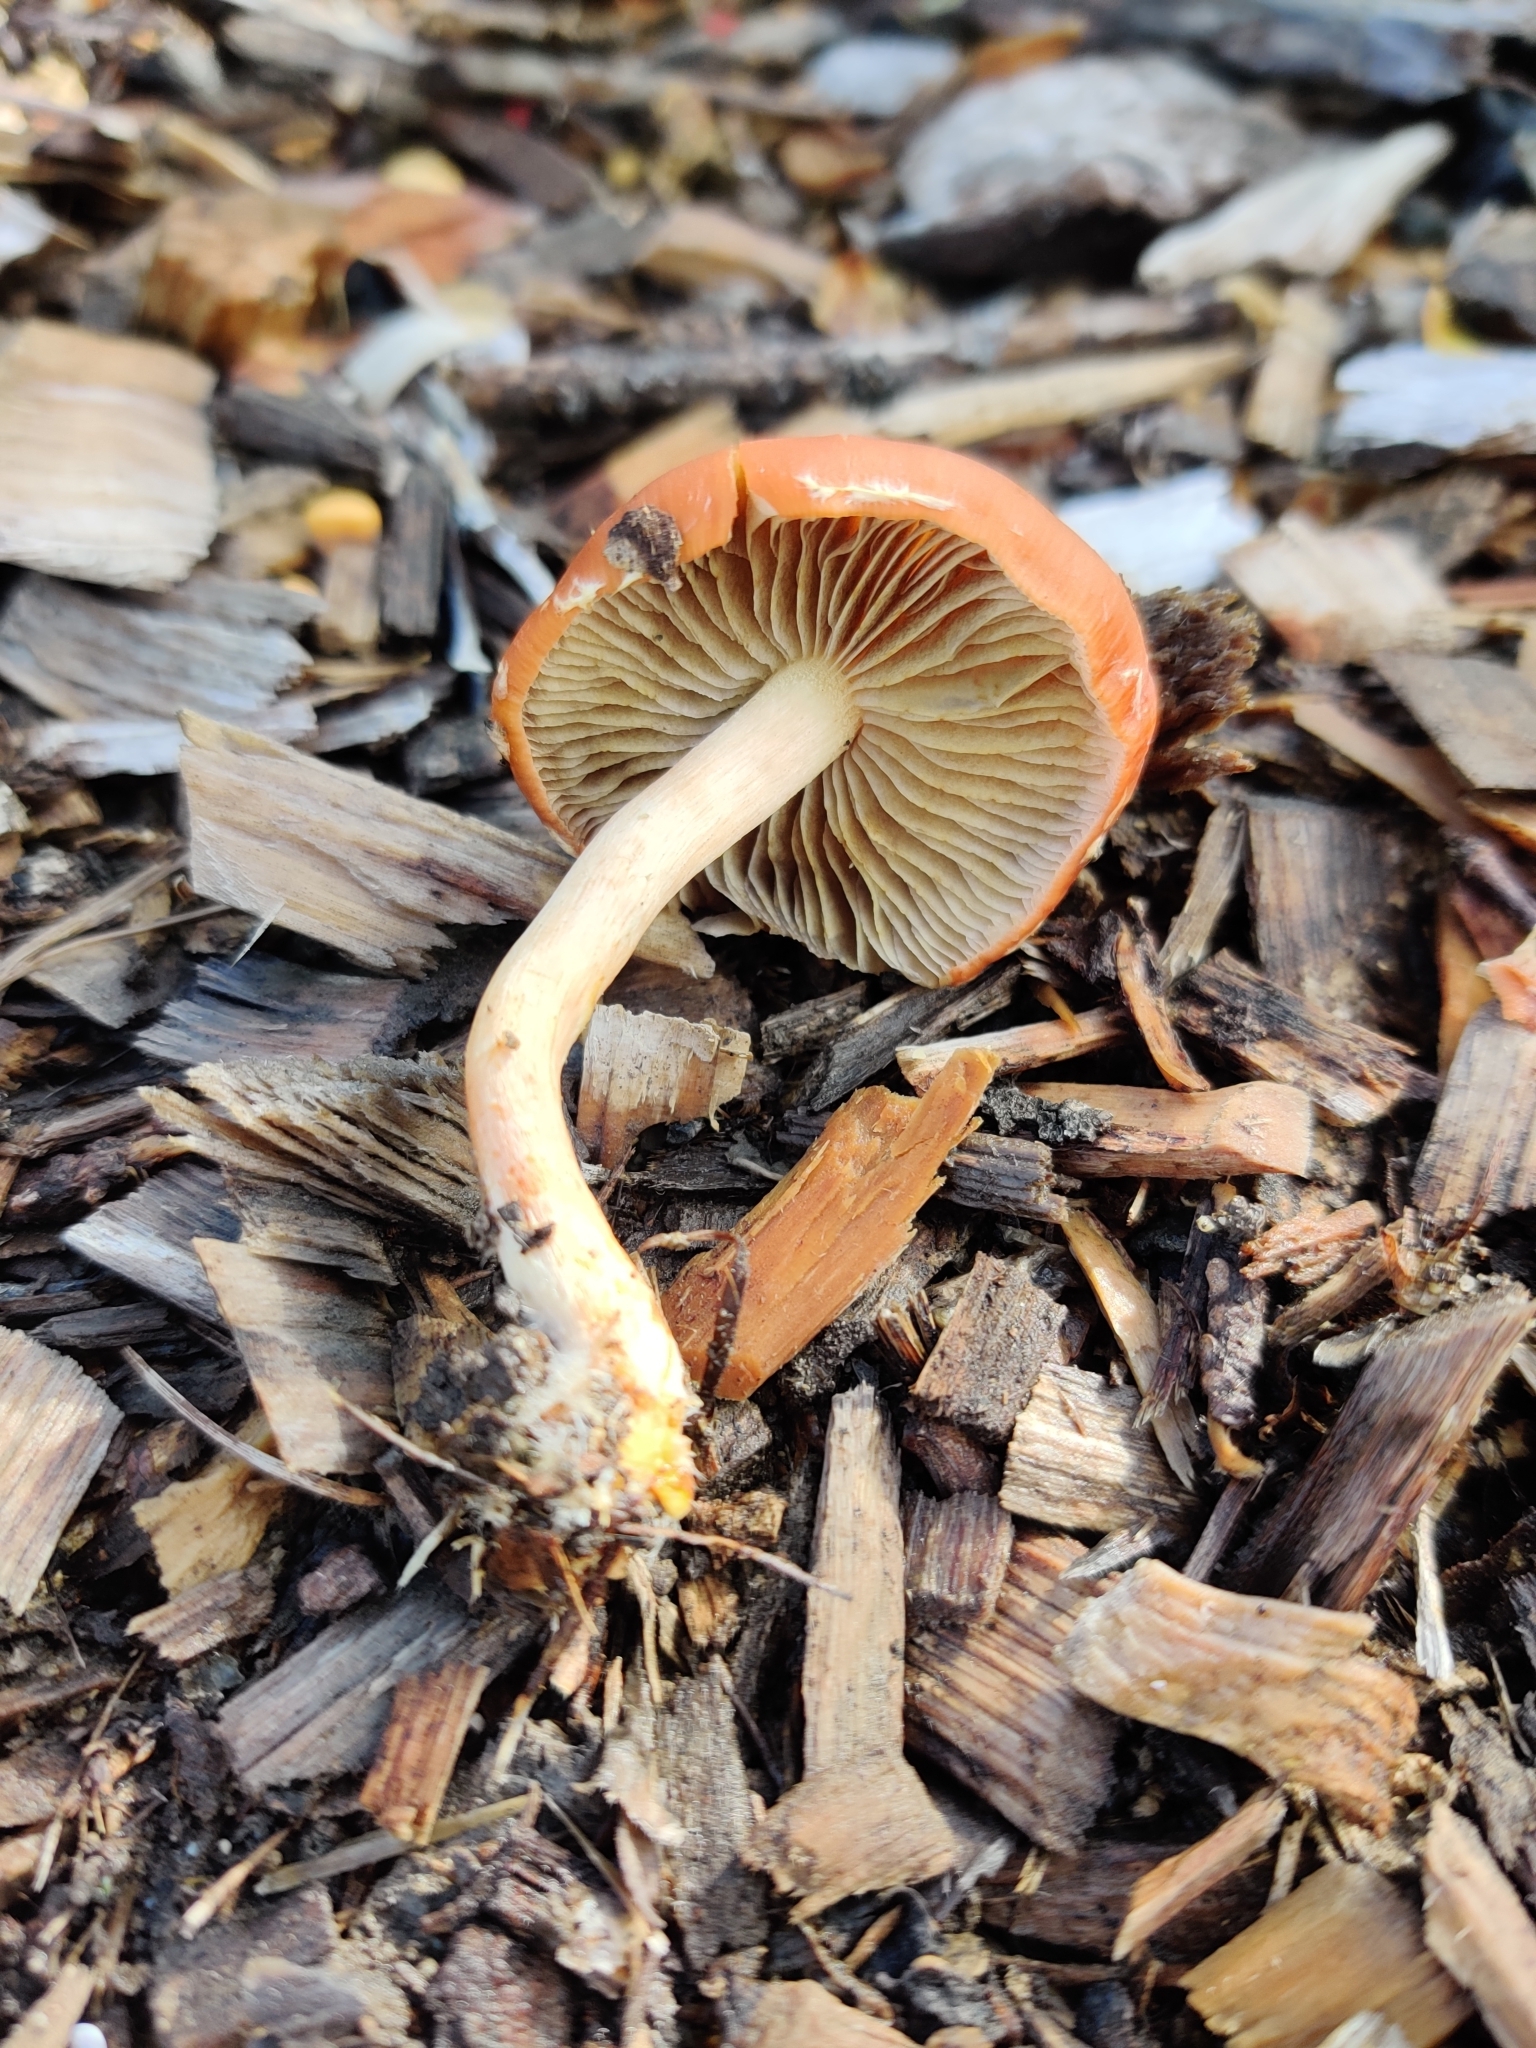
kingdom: Fungi
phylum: Basidiomycota
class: Agaricomycetes
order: Agaricales
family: Strophariaceae
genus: Leratiomyces
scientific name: Leratiomyces ceres
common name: Redlead roundhead
